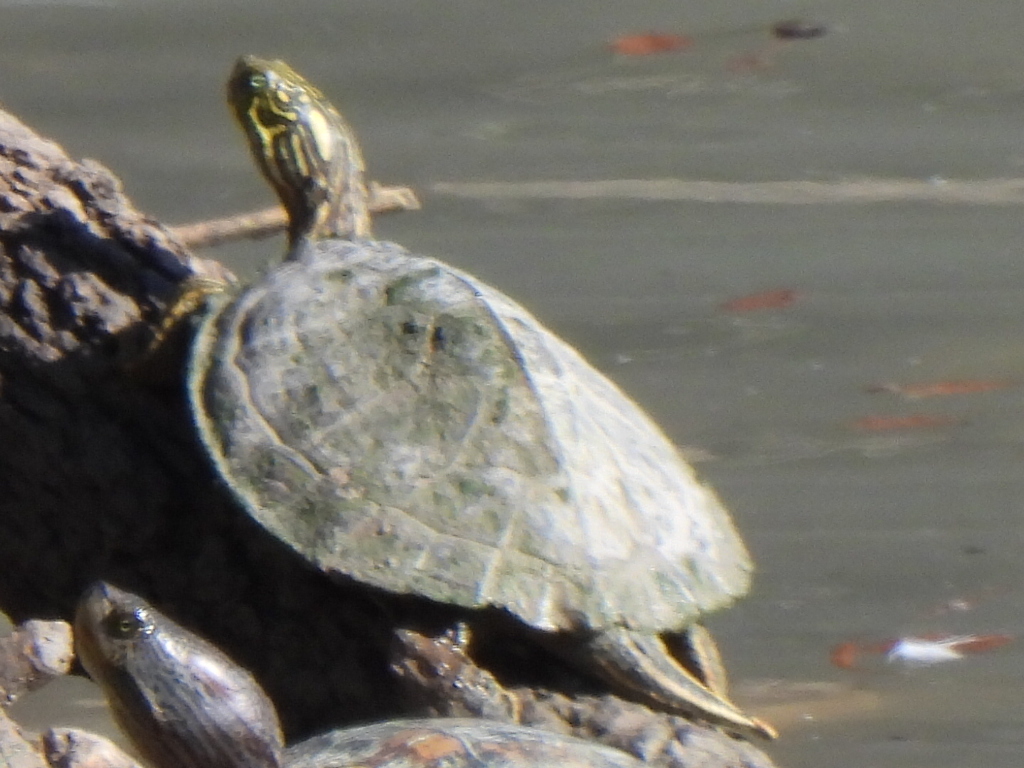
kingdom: Animalia
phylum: Chordata
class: Testudines
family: Emydidae
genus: Pseudemys
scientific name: Pseudemys texana
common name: Texas river cooter
